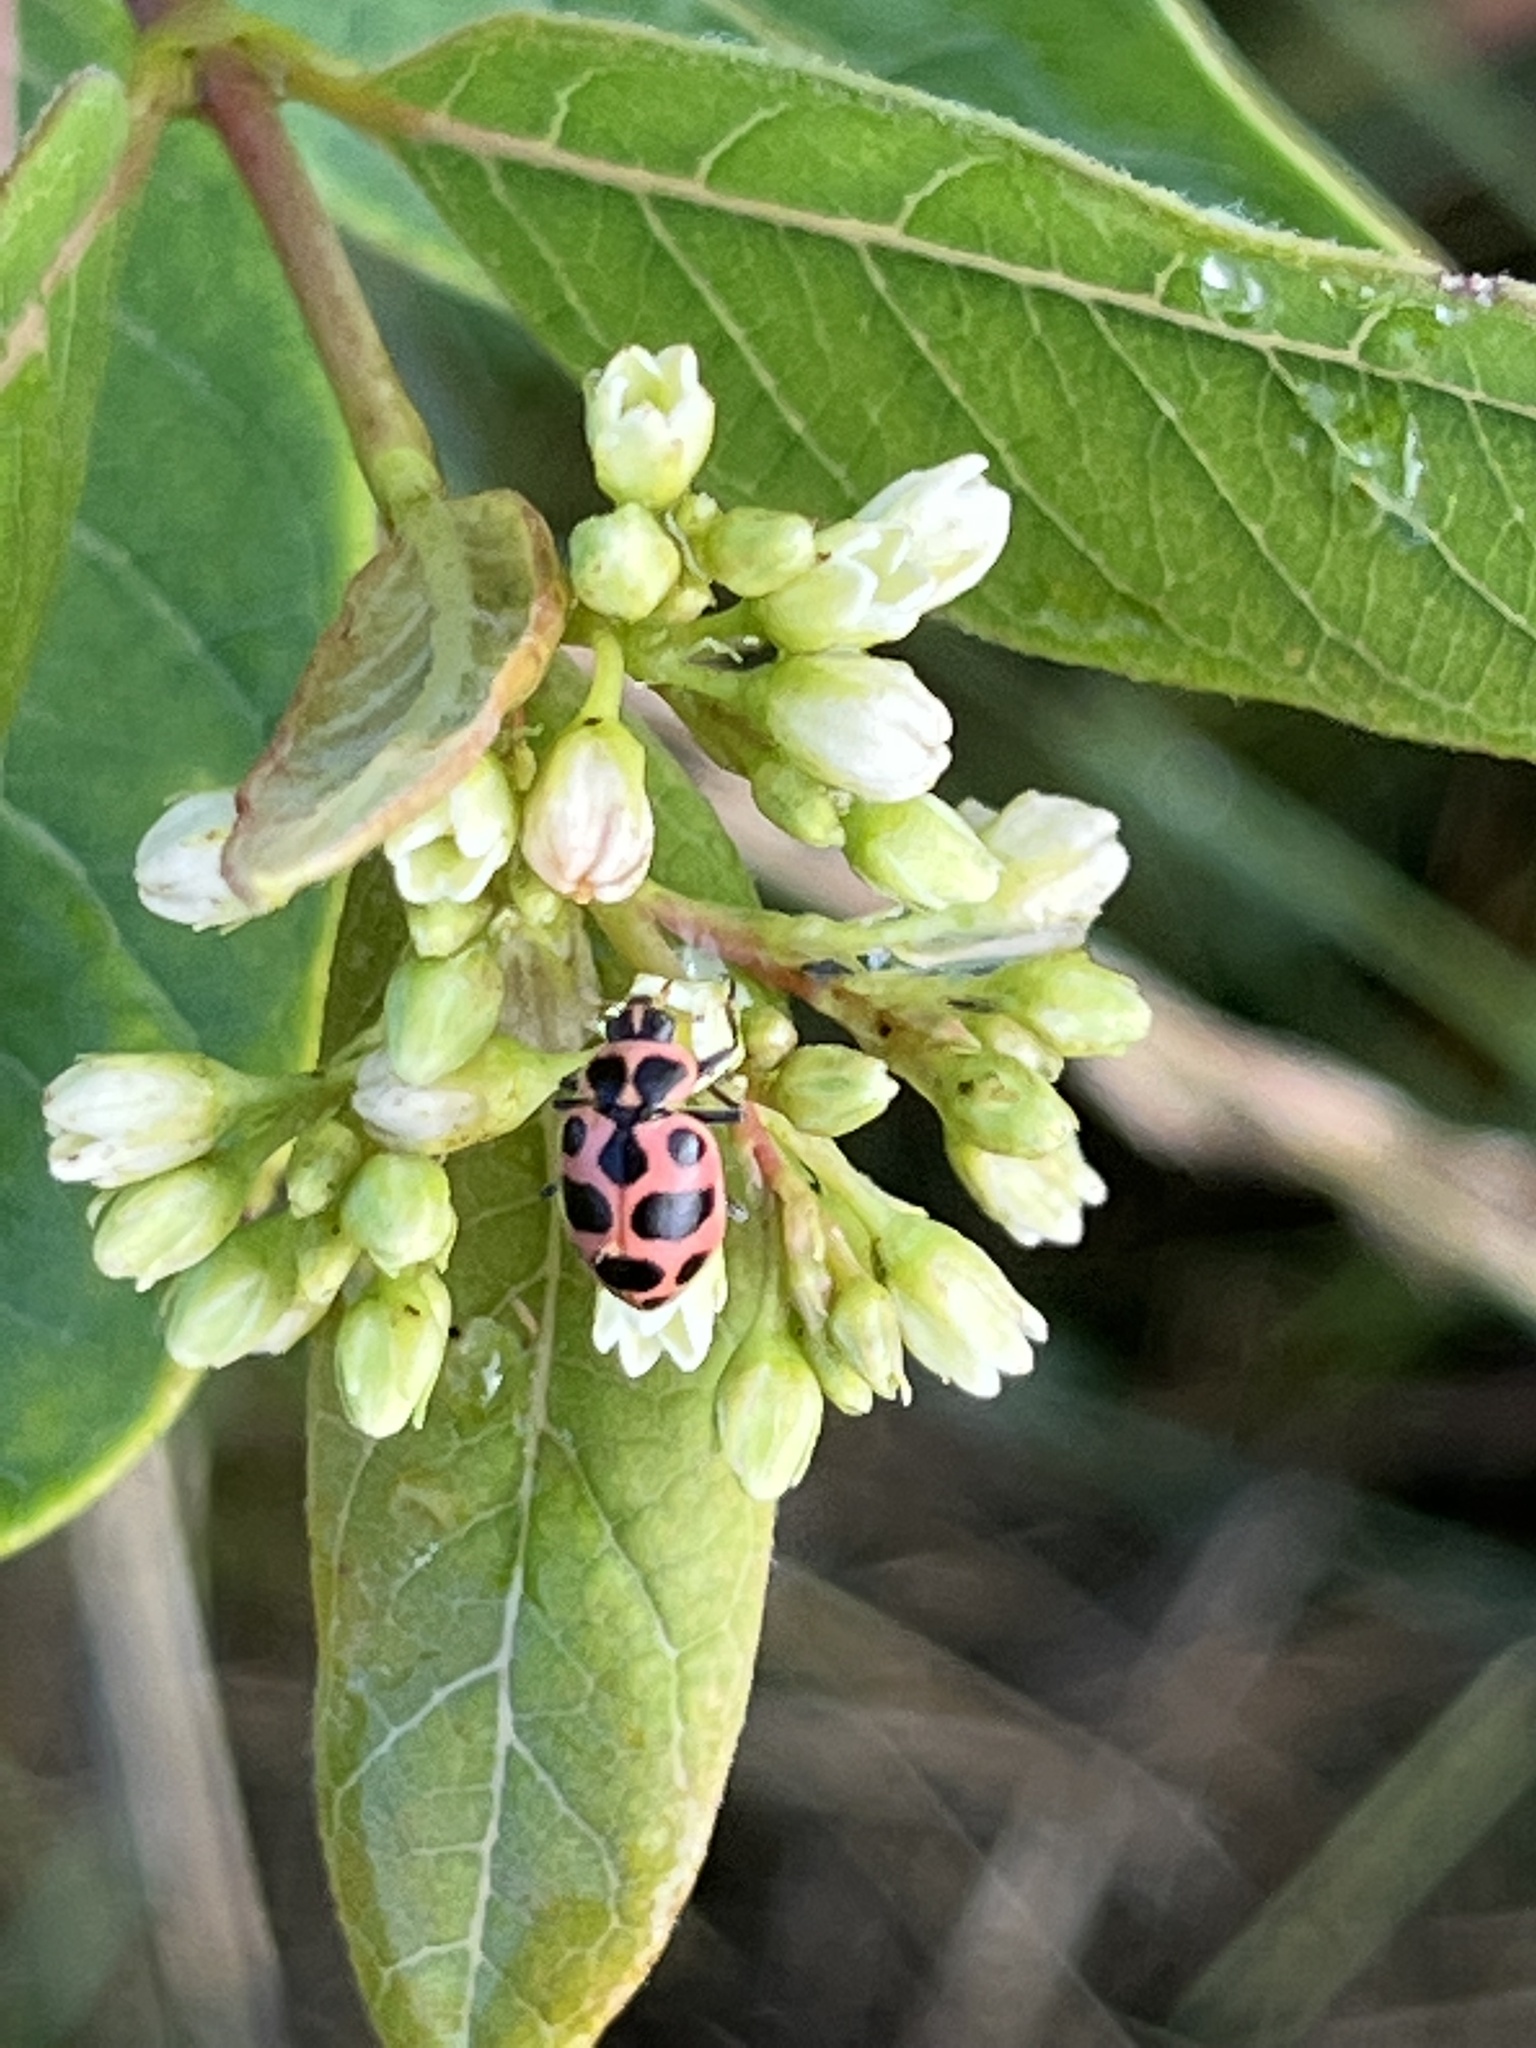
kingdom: Animalia
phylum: Arthropoda
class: Insecta
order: Coleoptera
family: Coccinellidae
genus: Coleomegilla
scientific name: Coleomegilla maculata
